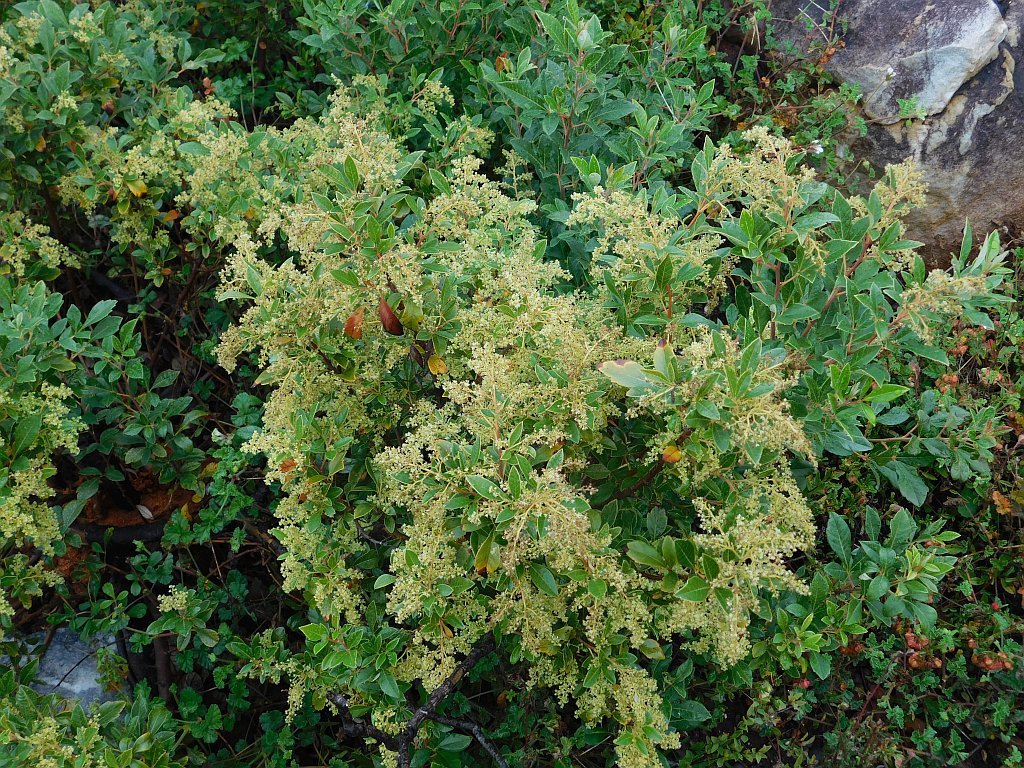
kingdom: Plantae
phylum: Tracheophyta
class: Magnoliopsida
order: Sapindales
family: Anacardiaceae
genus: Searsia
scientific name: Searsia tomentosa
